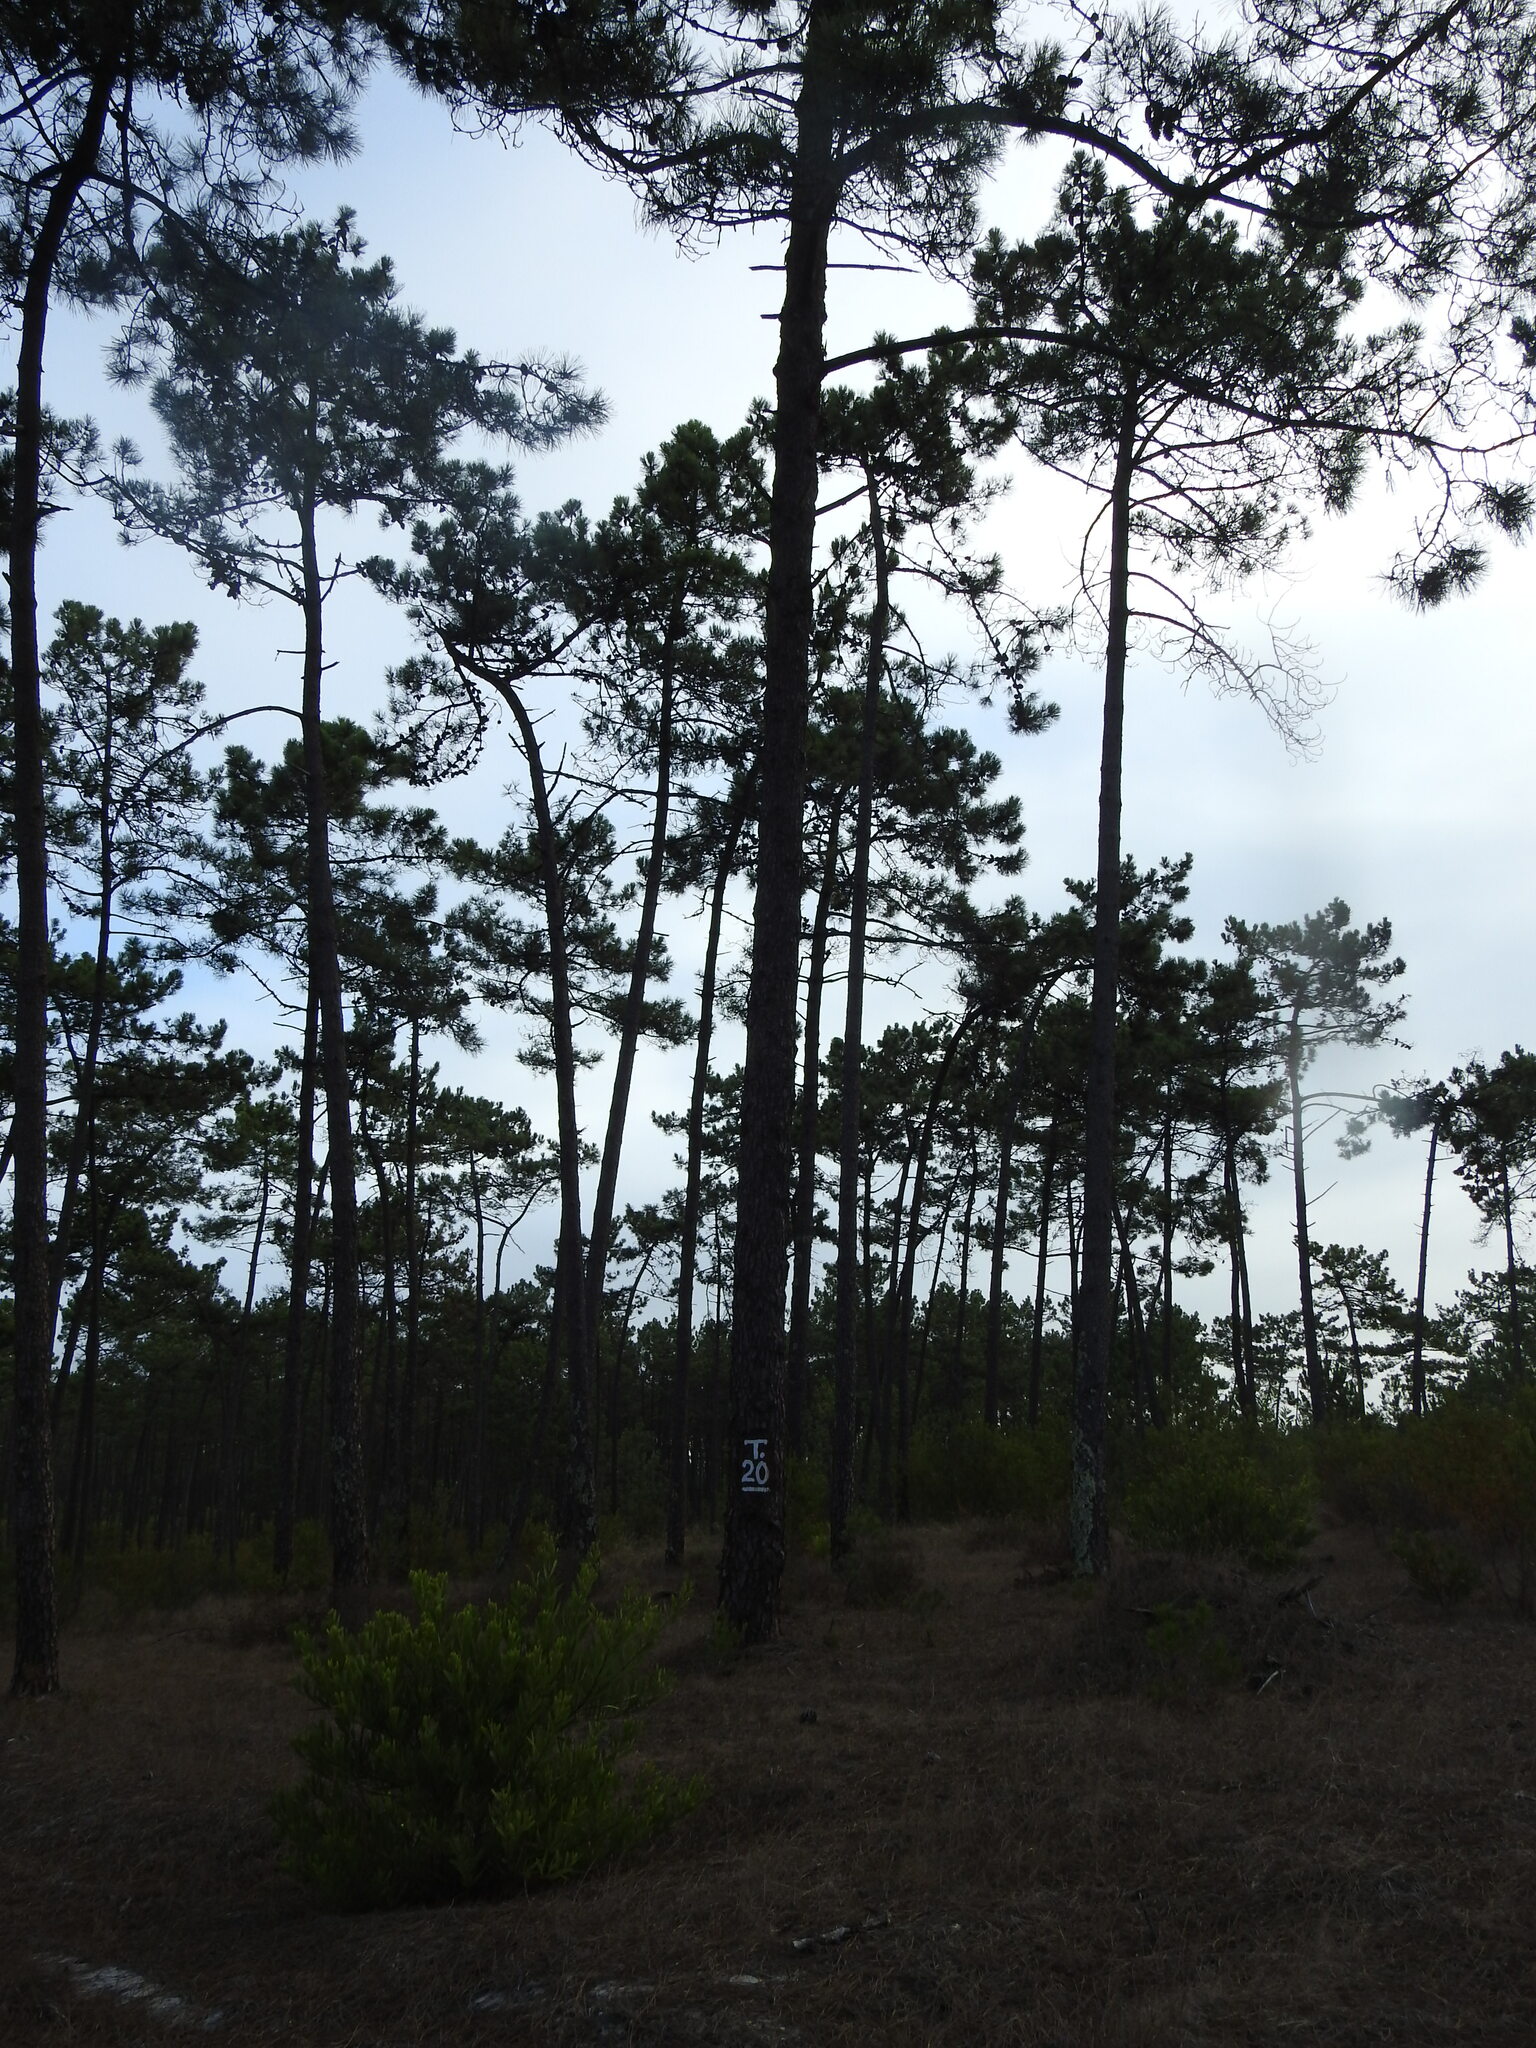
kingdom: Plantae
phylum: Tracheophyta
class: Pinopsida
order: Pinales
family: Pinaceae
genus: Pinus
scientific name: Pinus pinaster
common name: Maritime pine
